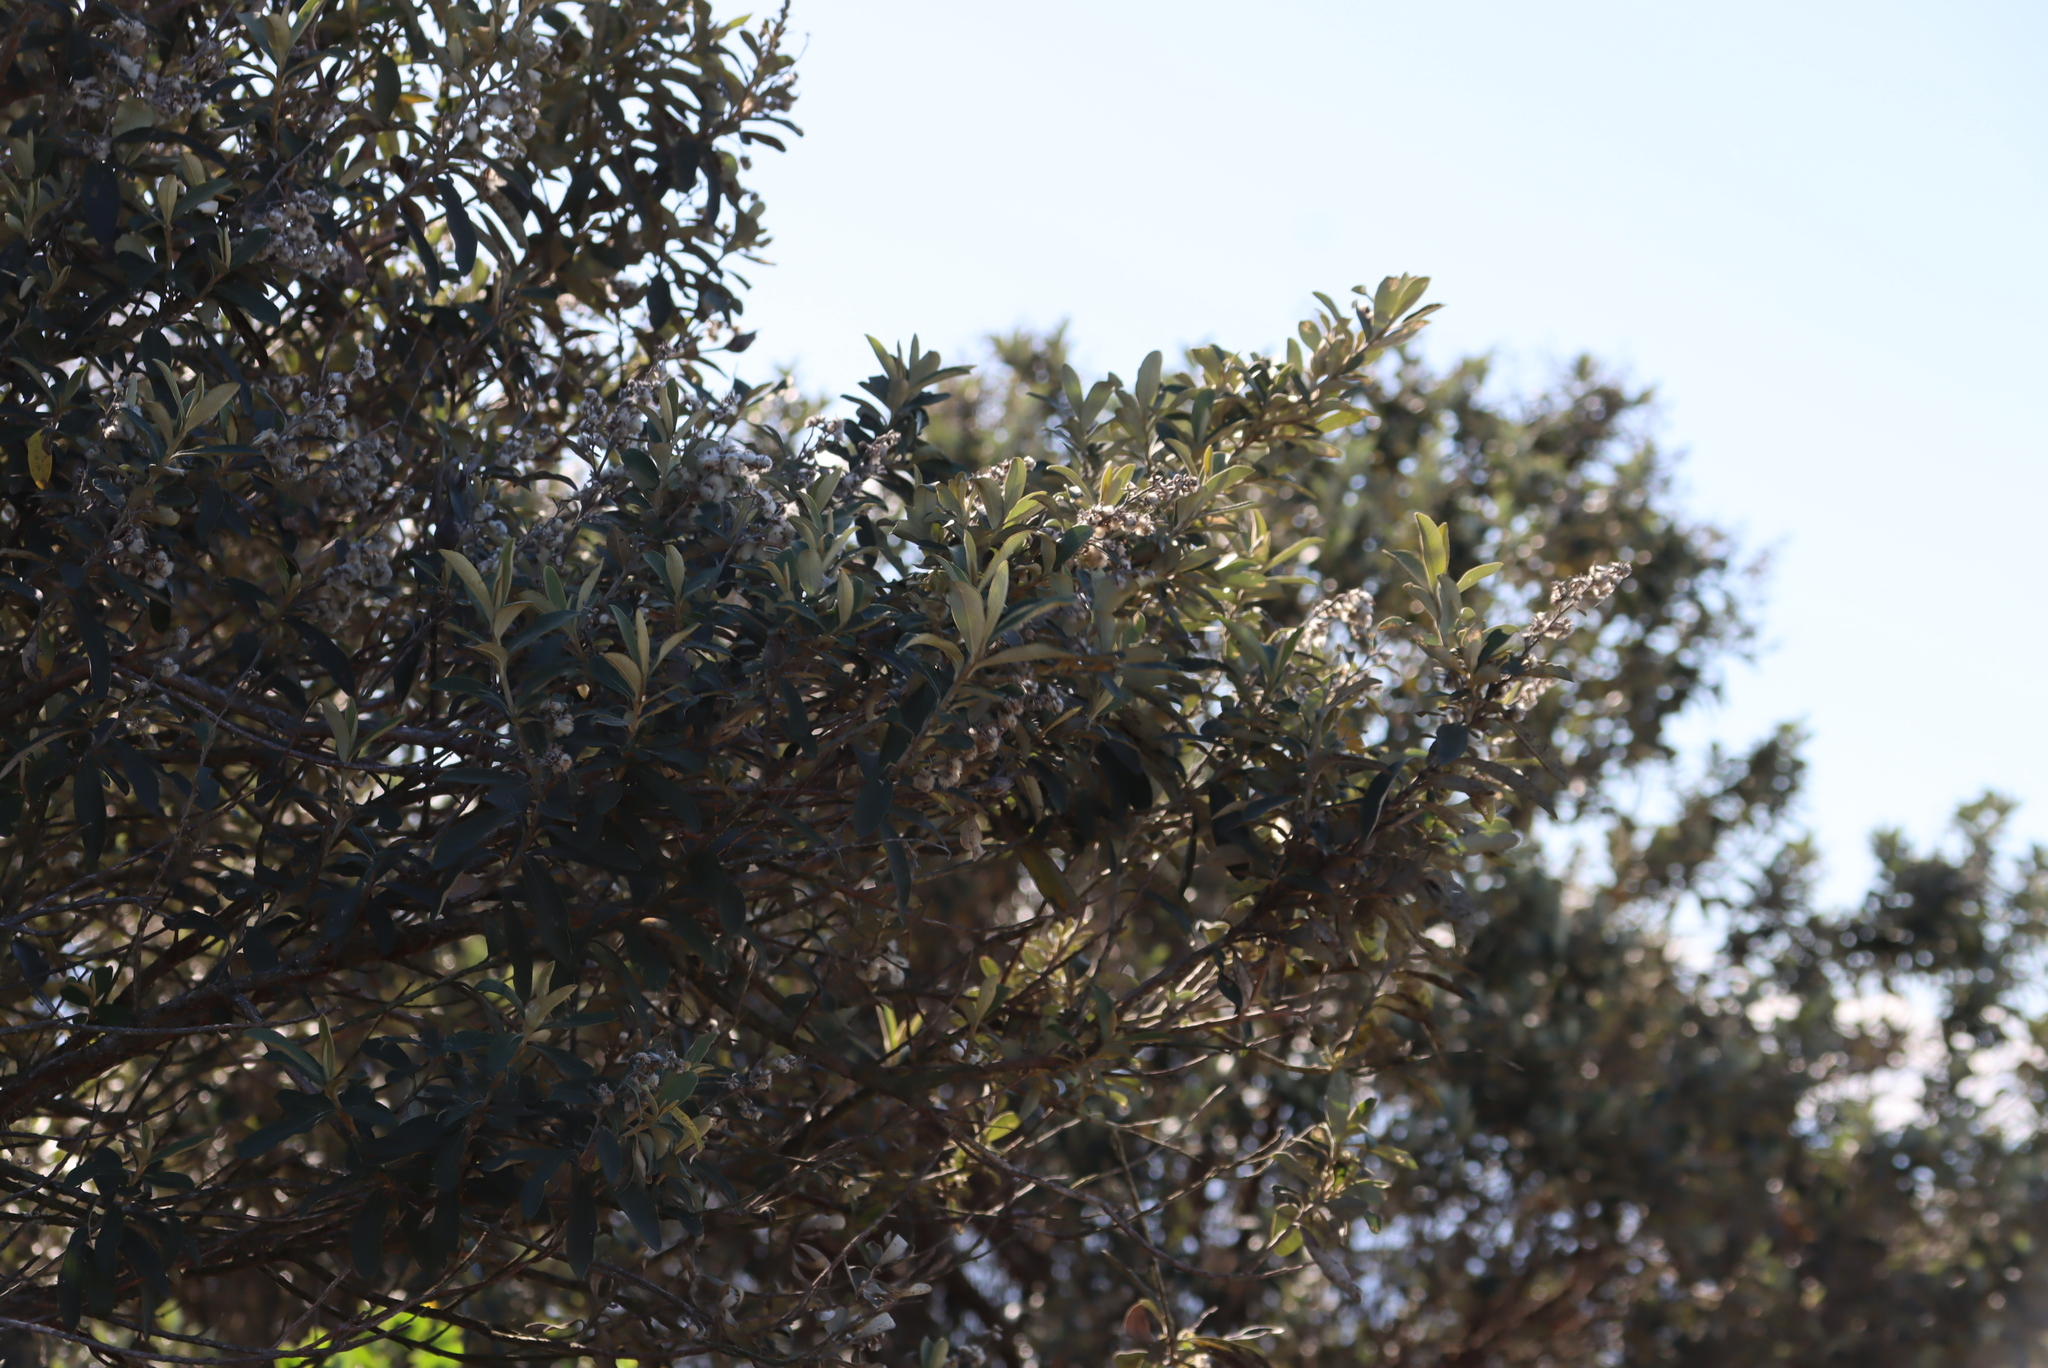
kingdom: Plantae
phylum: Tracheophyta
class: Magnoliopsida
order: Asterales
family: Asteraceae
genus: Tarchonanthus
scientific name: Tarchonanthus littoralis
